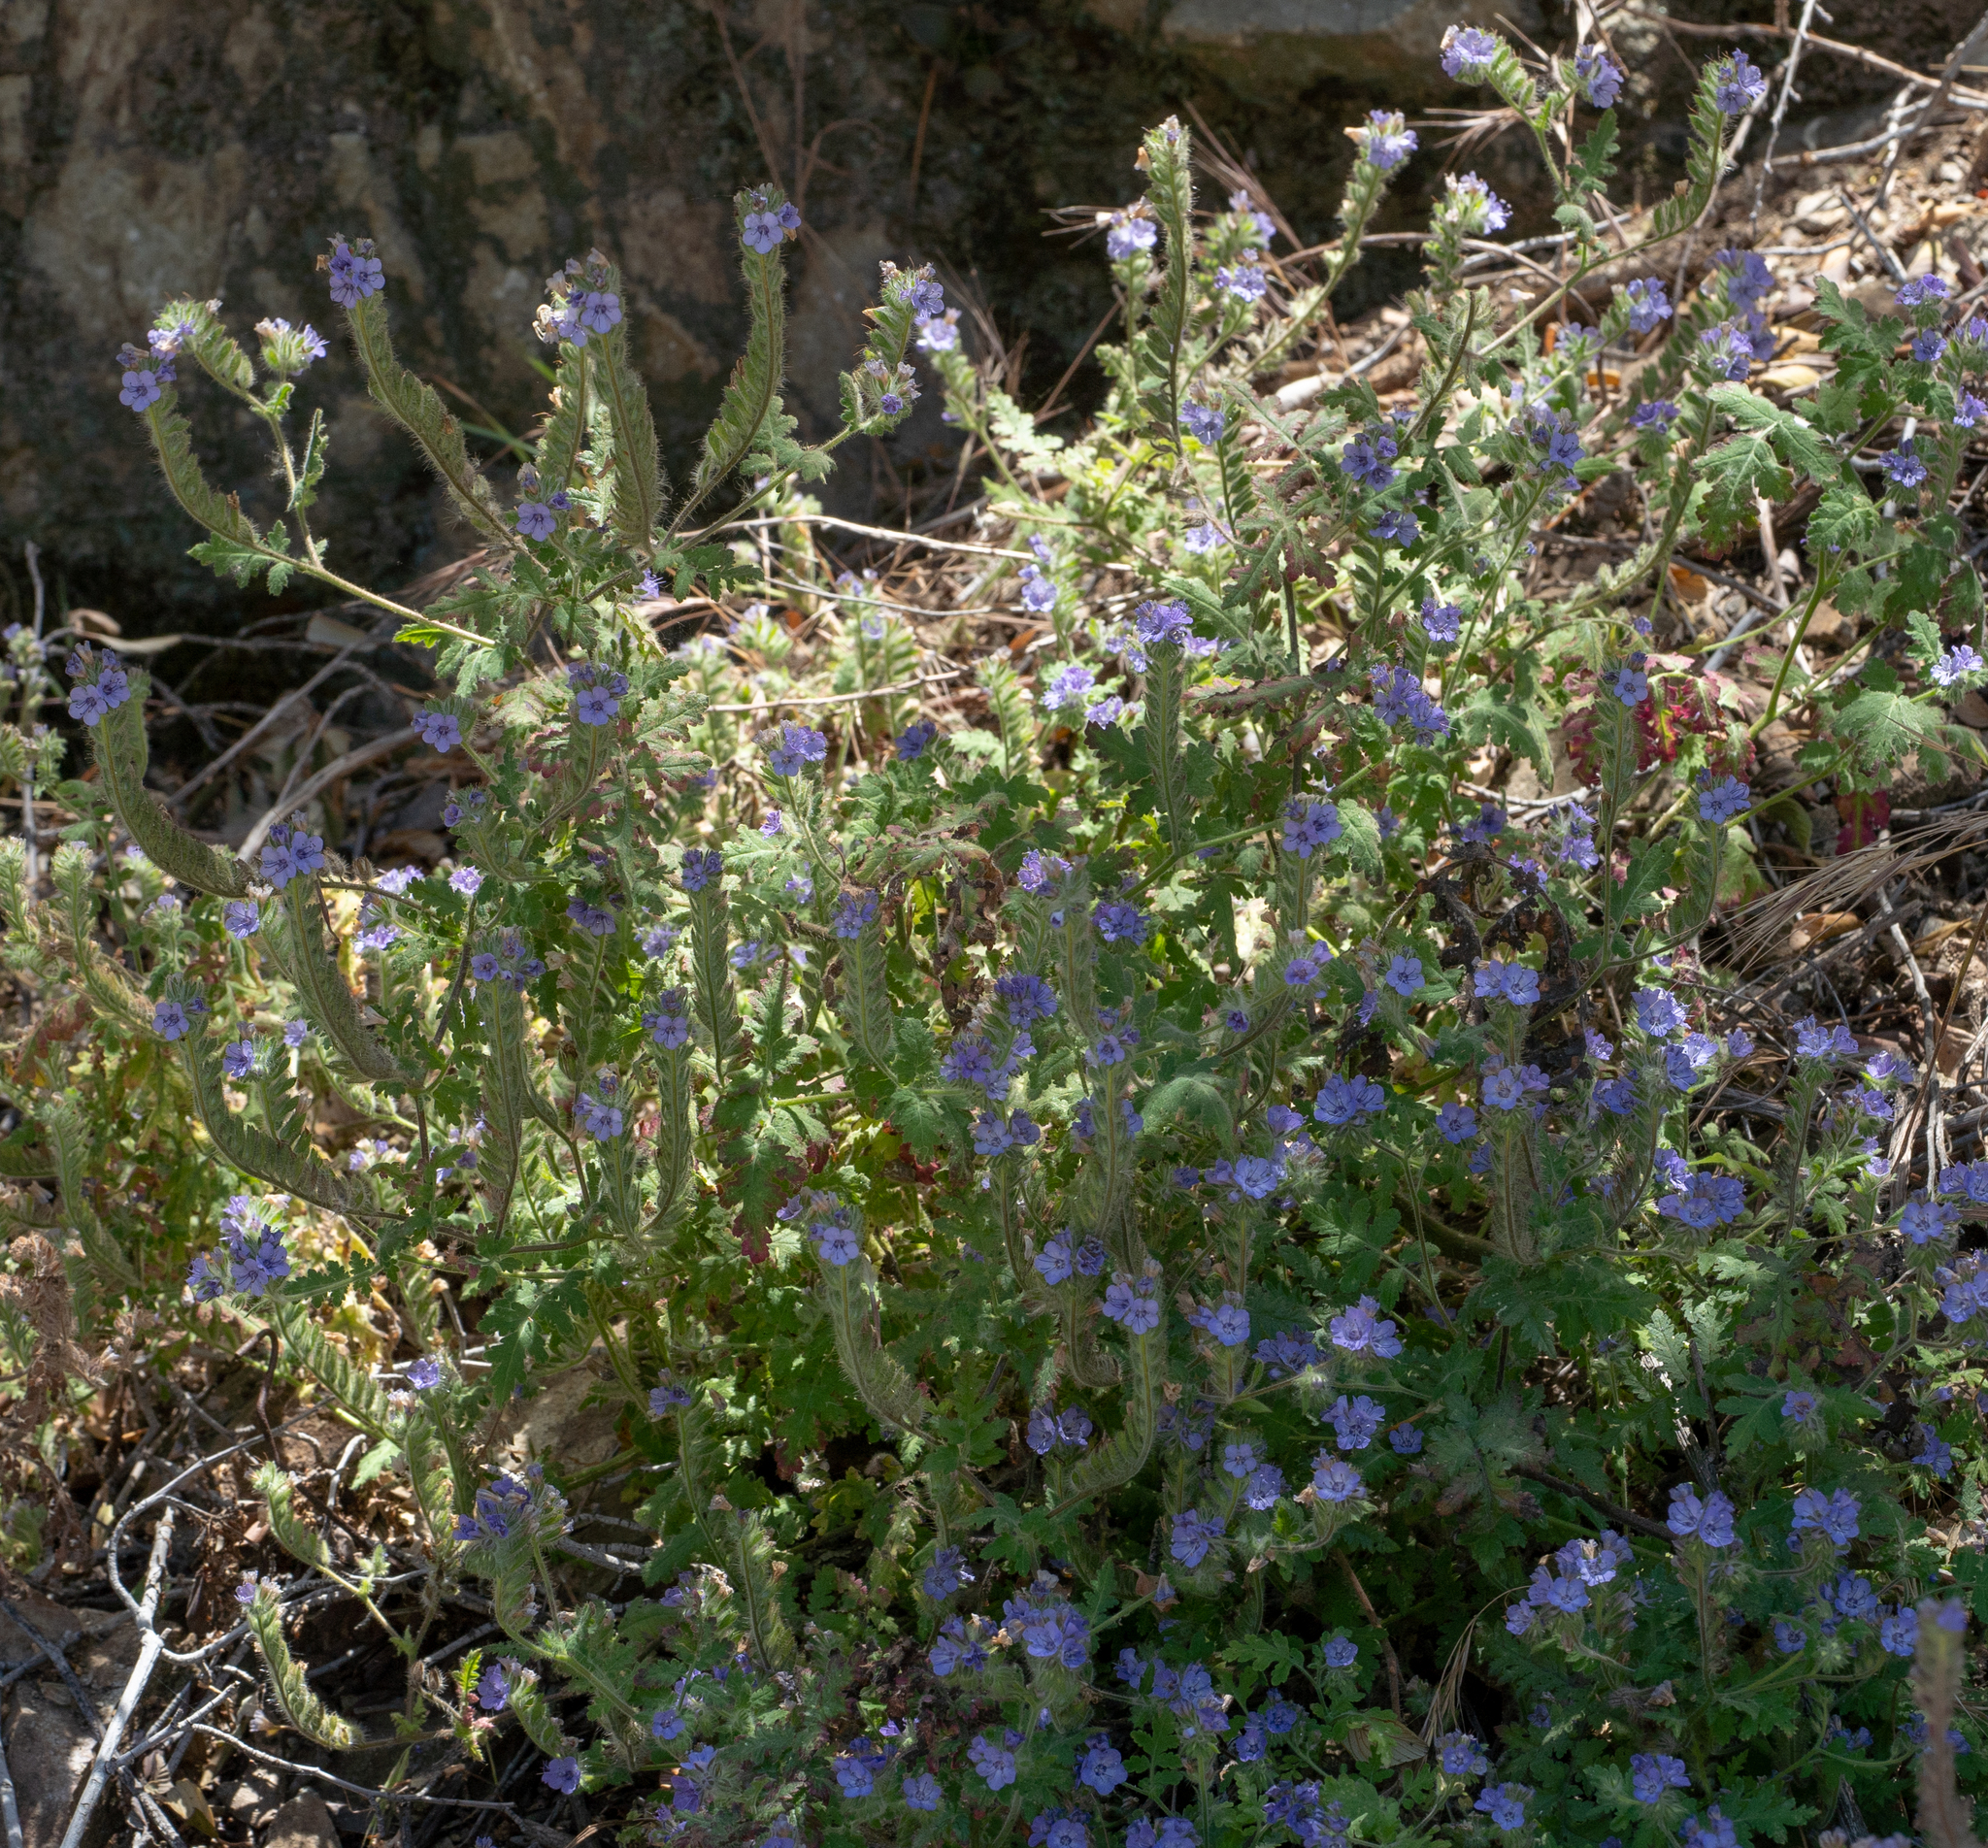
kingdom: Plantae
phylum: Tracheophyta
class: Magnoliopsida
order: Boraginales
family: Hydrophyllaceae
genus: Phacelia
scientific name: Phacelia distans
